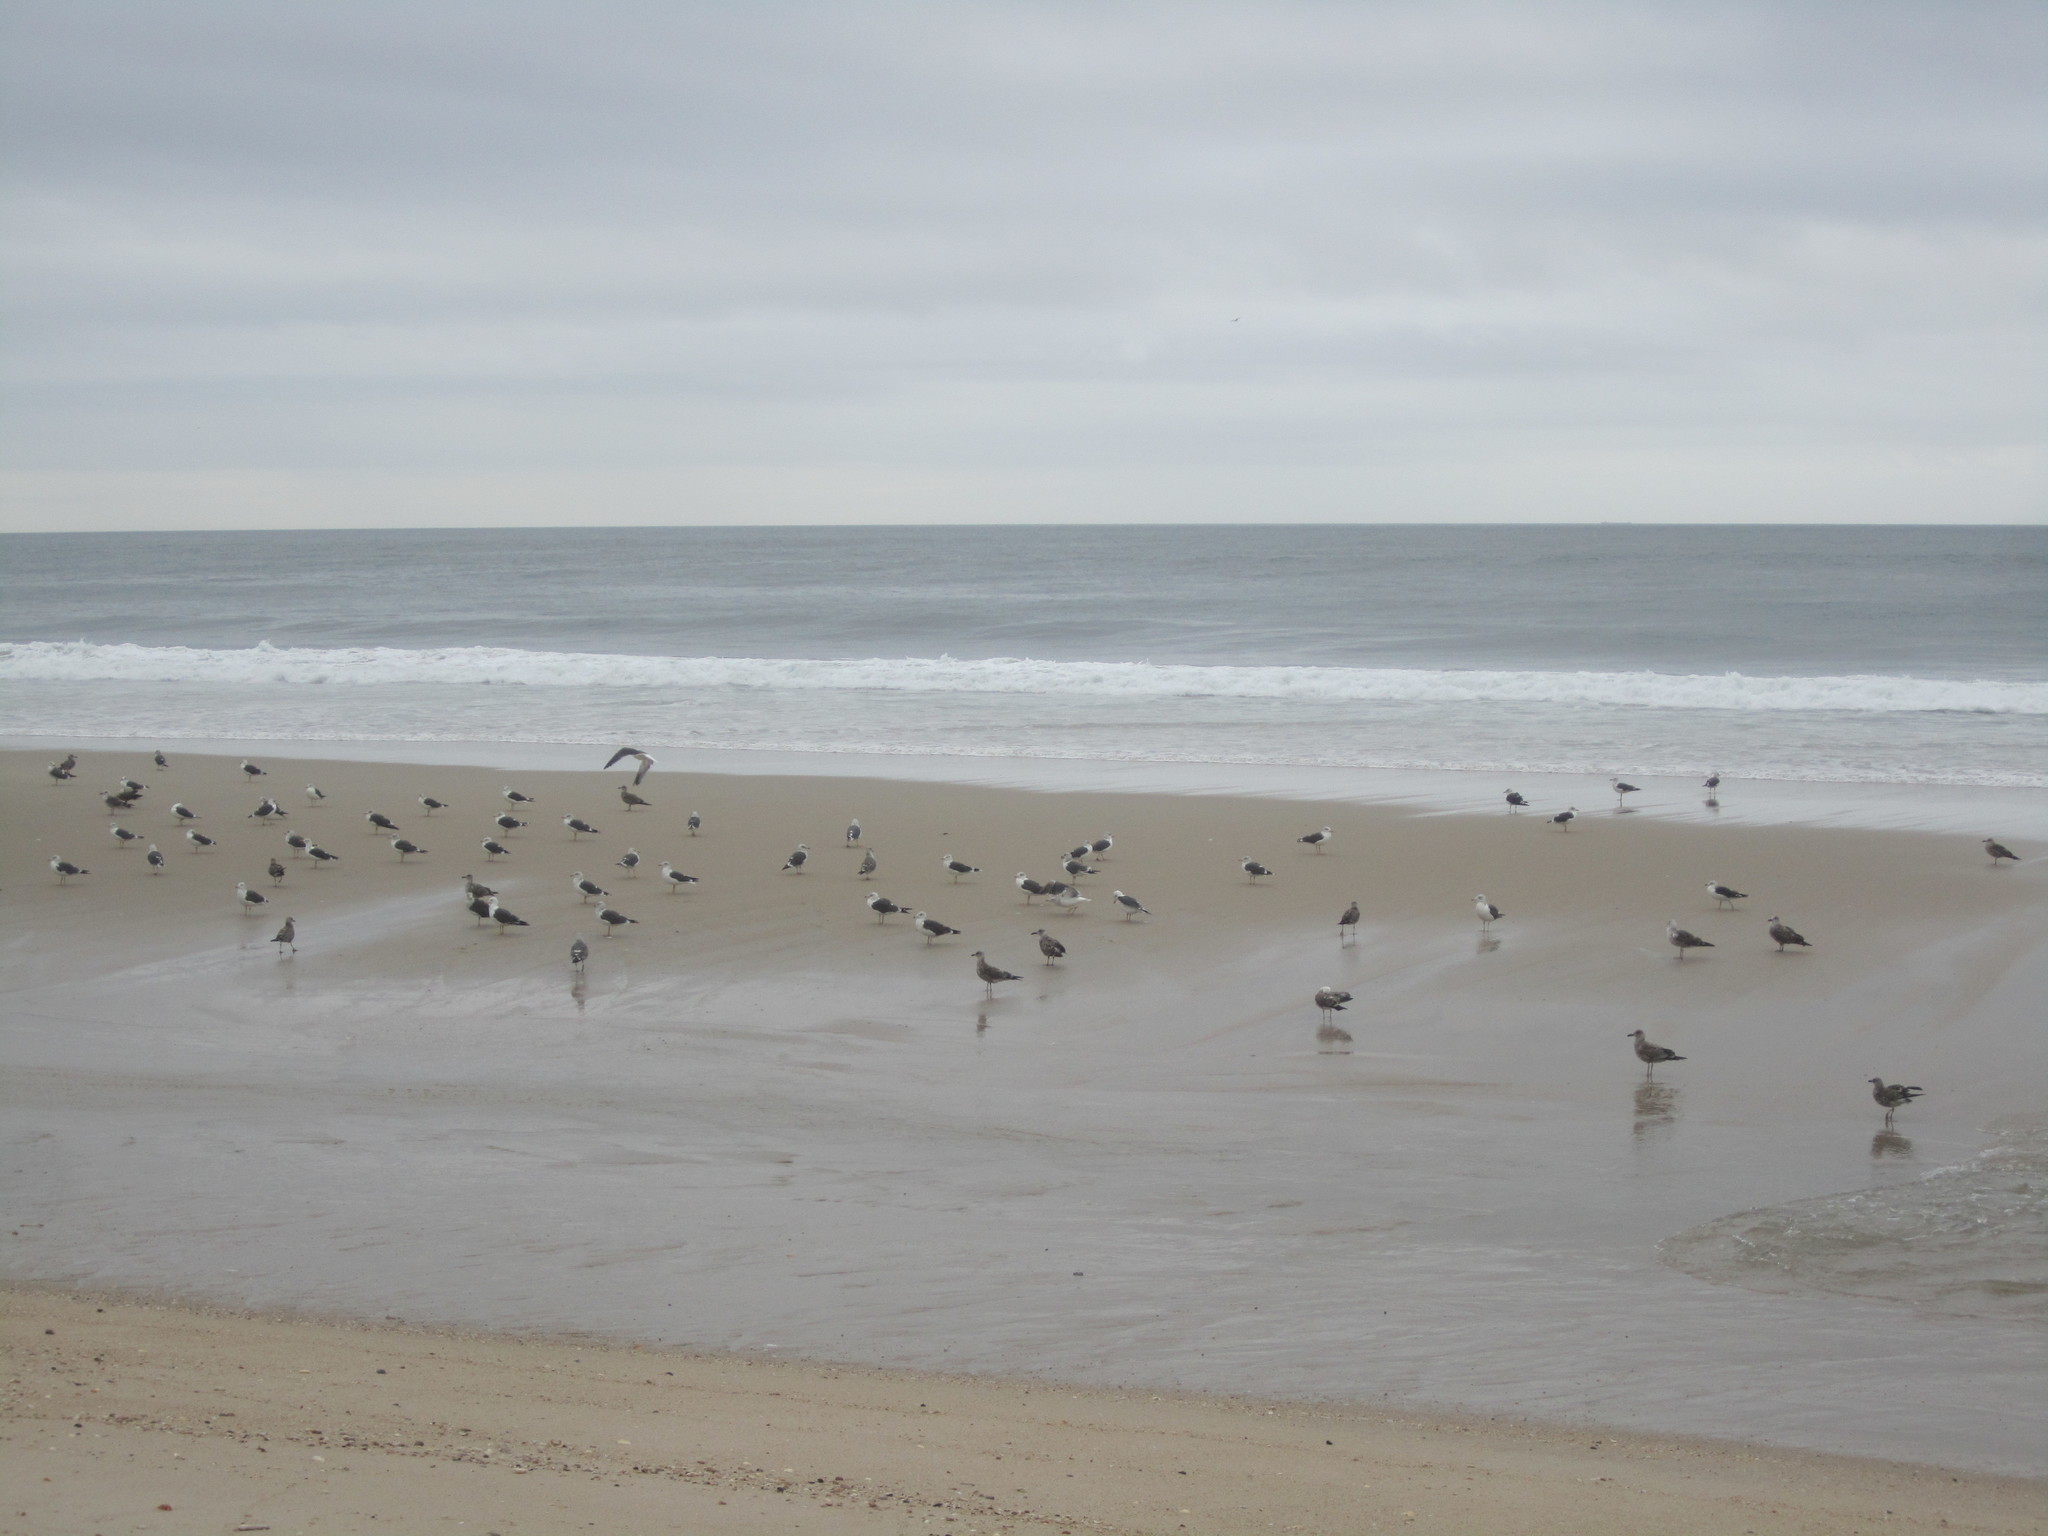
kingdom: Animalia
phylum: Chordata
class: Aves
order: Charadriiformes
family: Laridae
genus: Larus
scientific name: Larus fuscus
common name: Lesser black-backed gull
